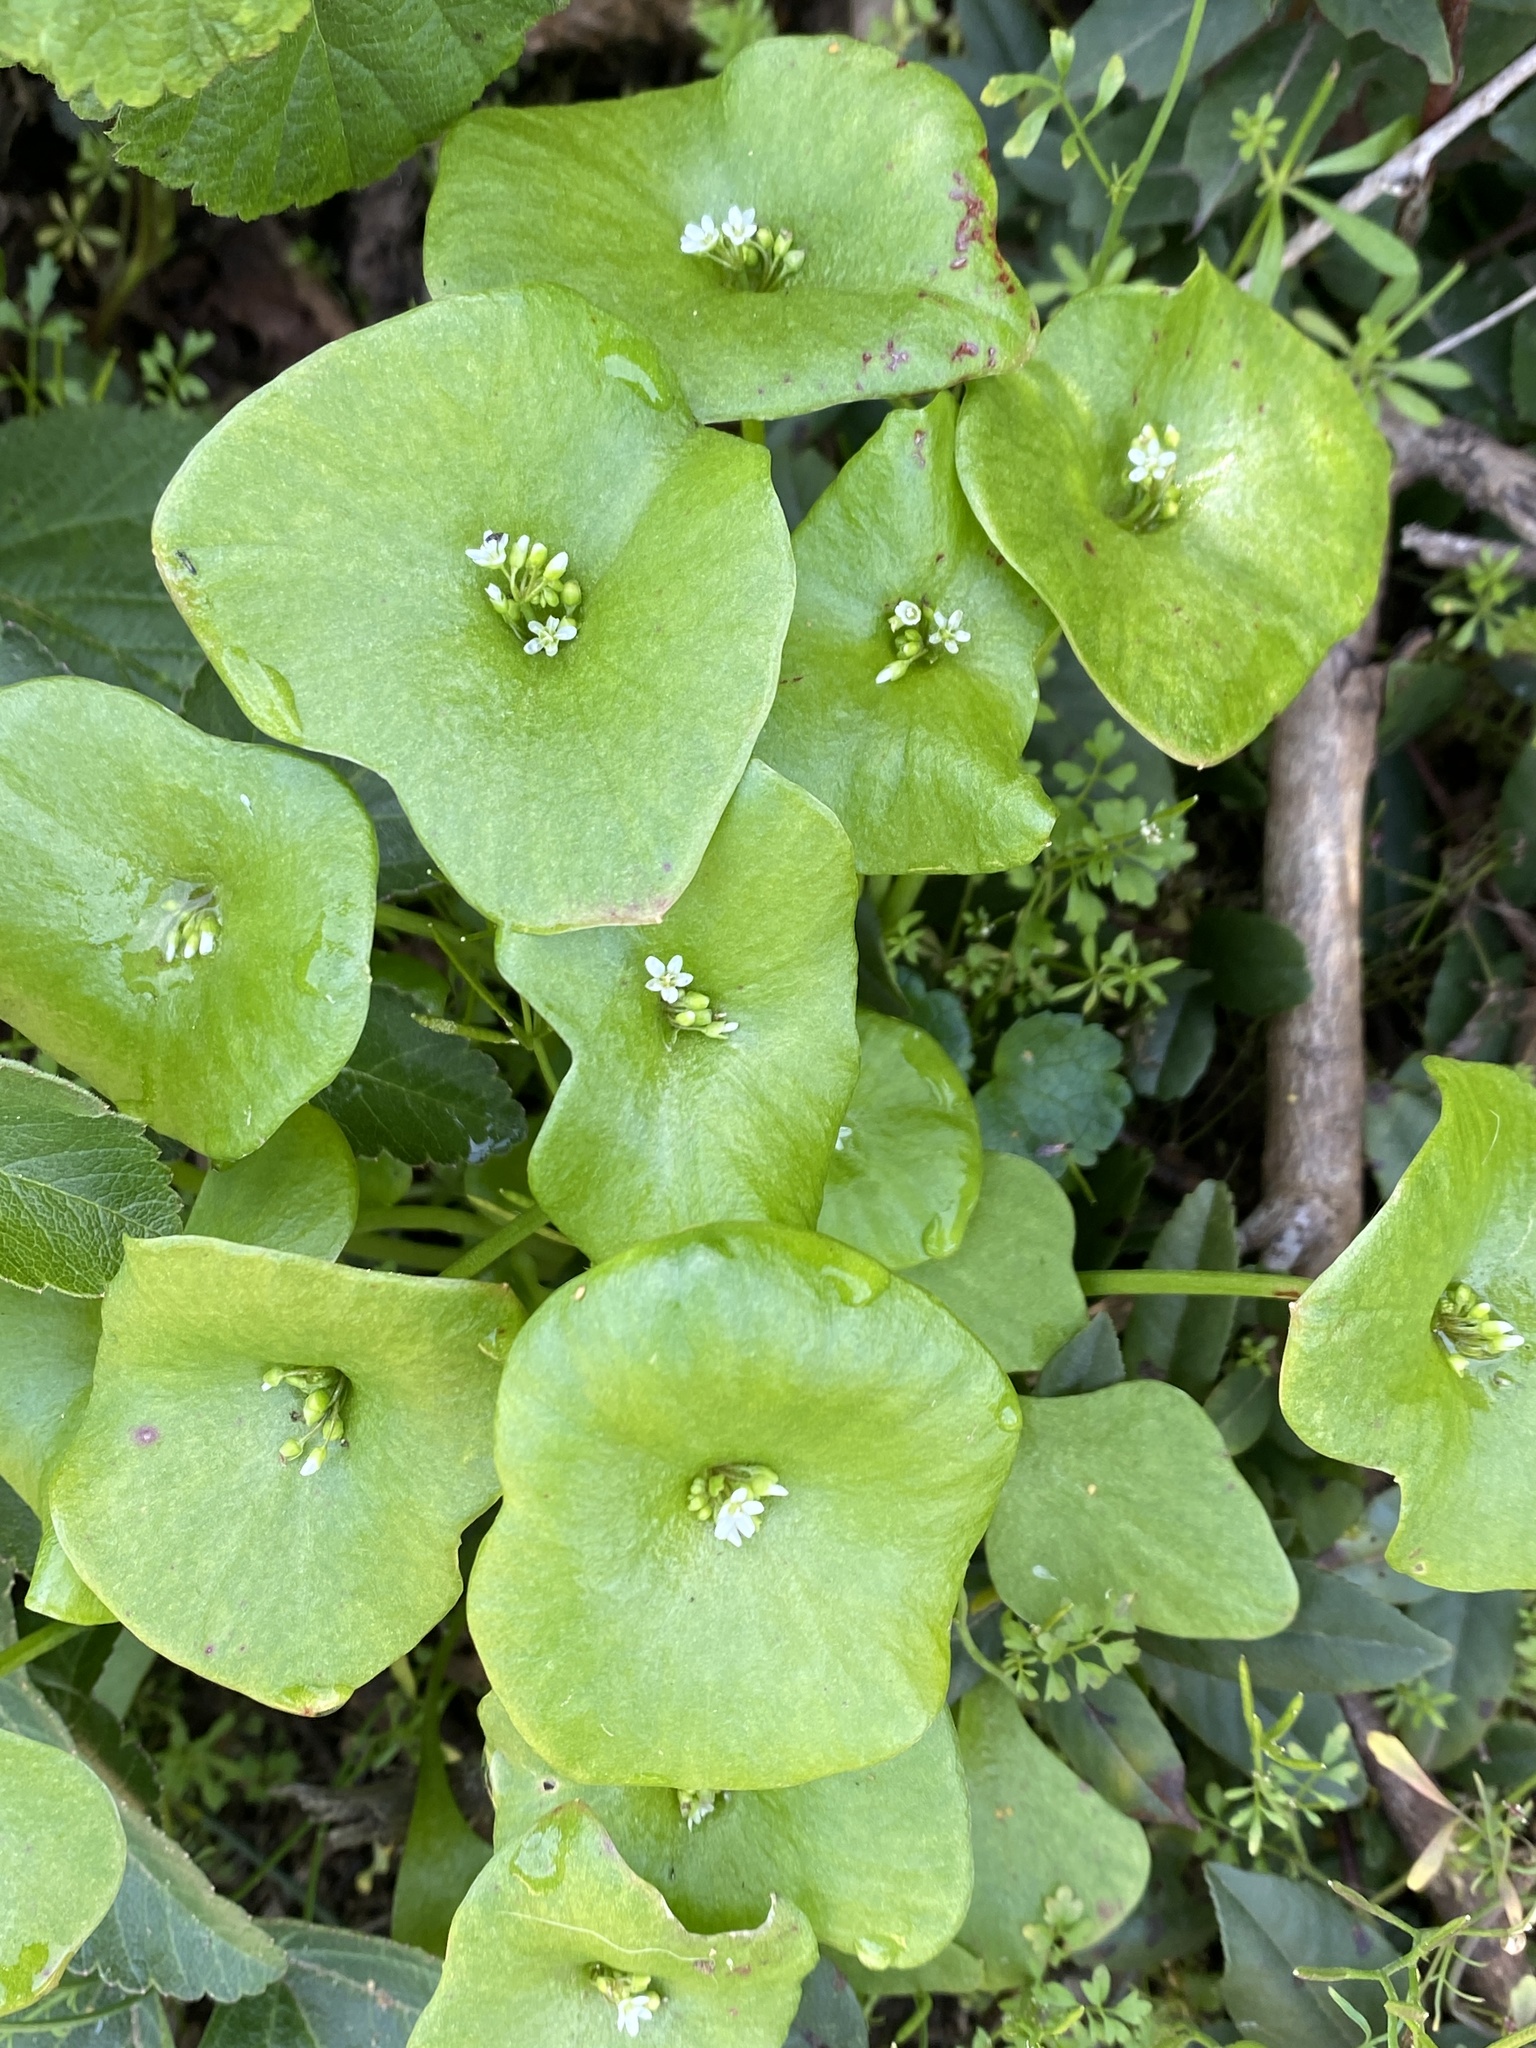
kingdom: Plantae
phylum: Tracheophyta
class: Magnoliopsida
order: Caryophyllales
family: Montiaceae
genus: Claytonia
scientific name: Claytonia perfoliata
